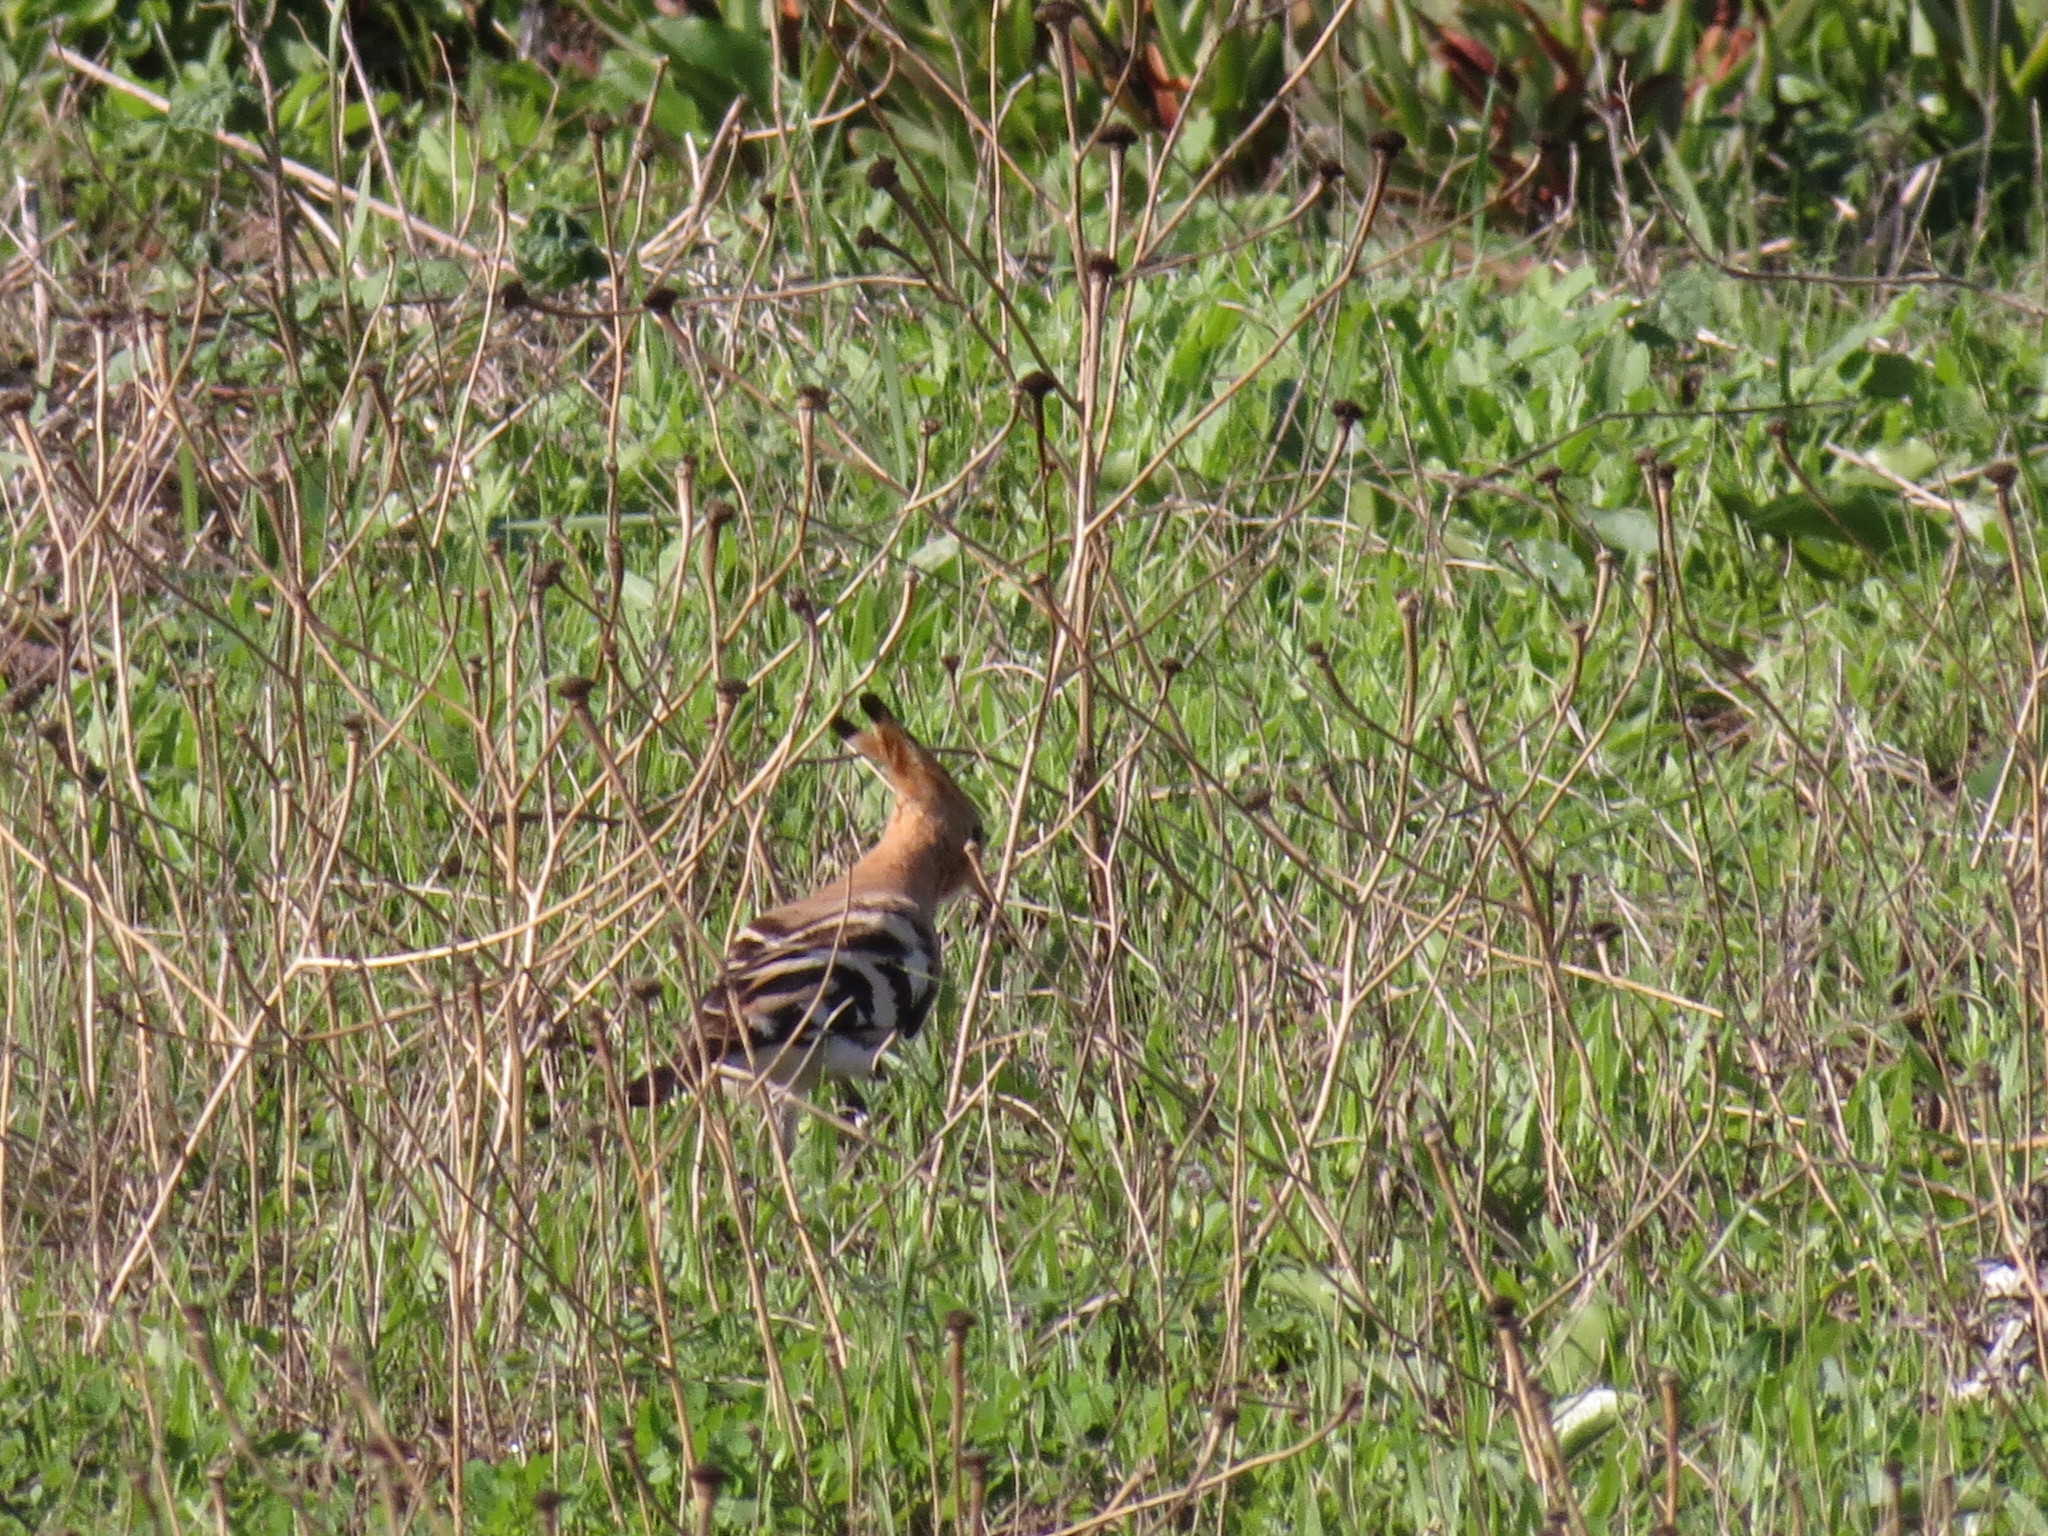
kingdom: Animalia
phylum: Chordata
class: Aves
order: Bucerotiformes
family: Upupidae
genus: Upupa
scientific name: Upupa epops
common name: Eurasian hoopoe
